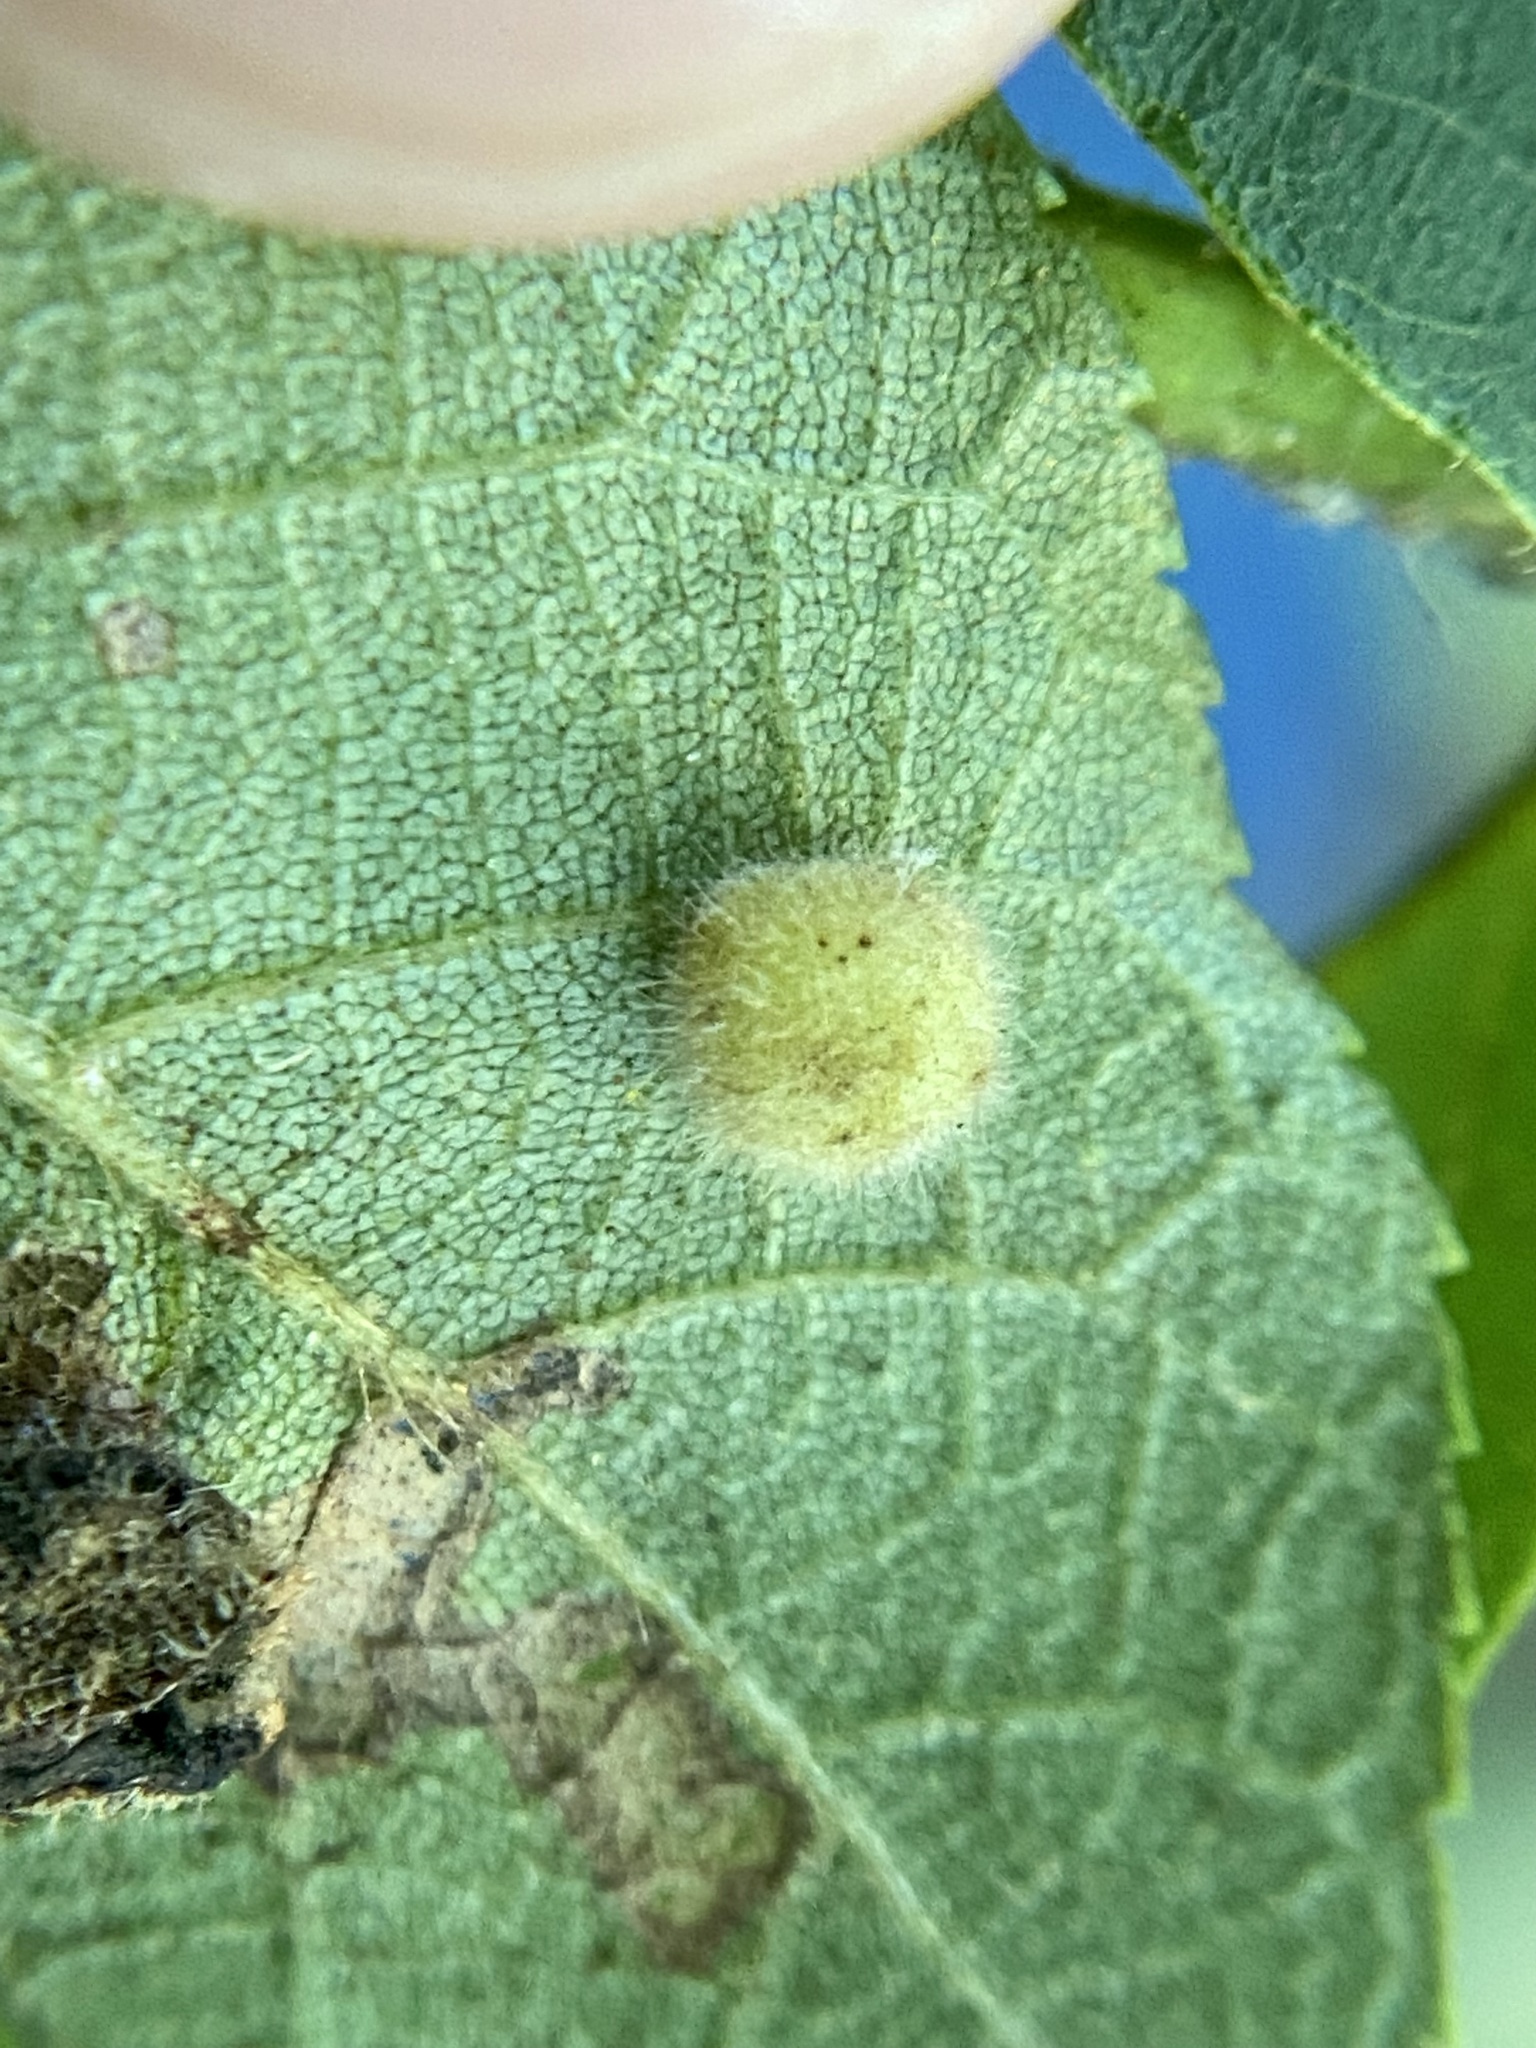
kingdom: Animalia
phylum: Arthropoda
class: Insecta
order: Diptera
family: Cecidomyiidae
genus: Caryomyia
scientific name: Caryomyia thompsoni
